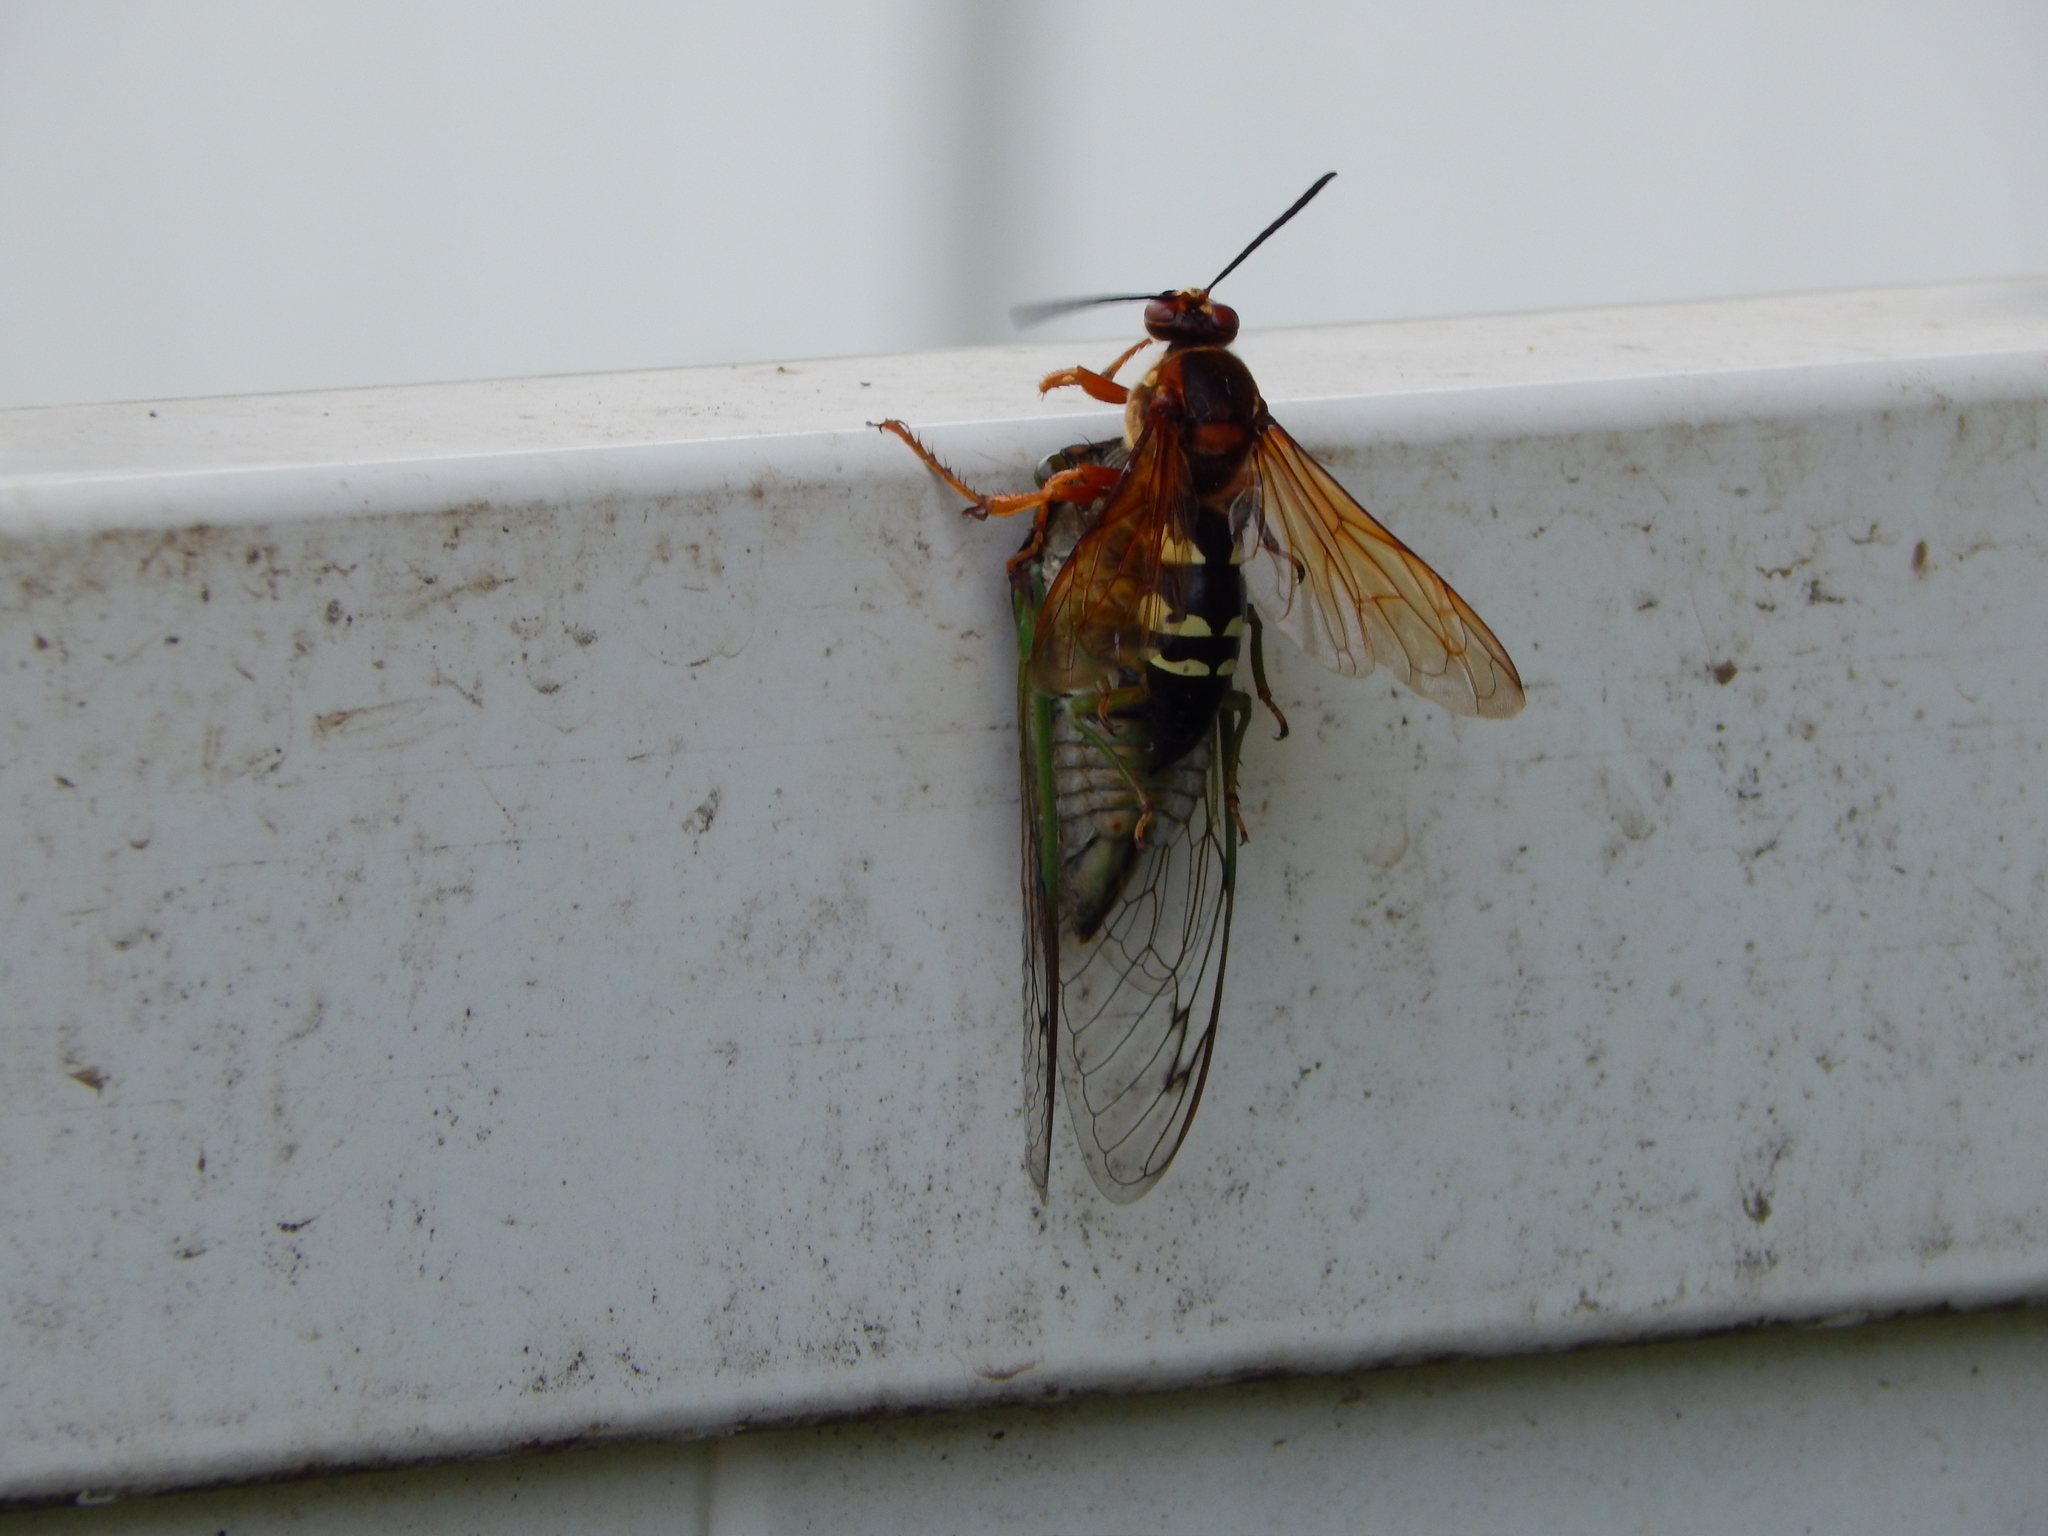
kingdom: Animalia
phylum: Arthropoda
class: Insecta
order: Hymenoptera
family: Crabronidae
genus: Sphecius
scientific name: Sphecius speciosus
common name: Cicada killer
